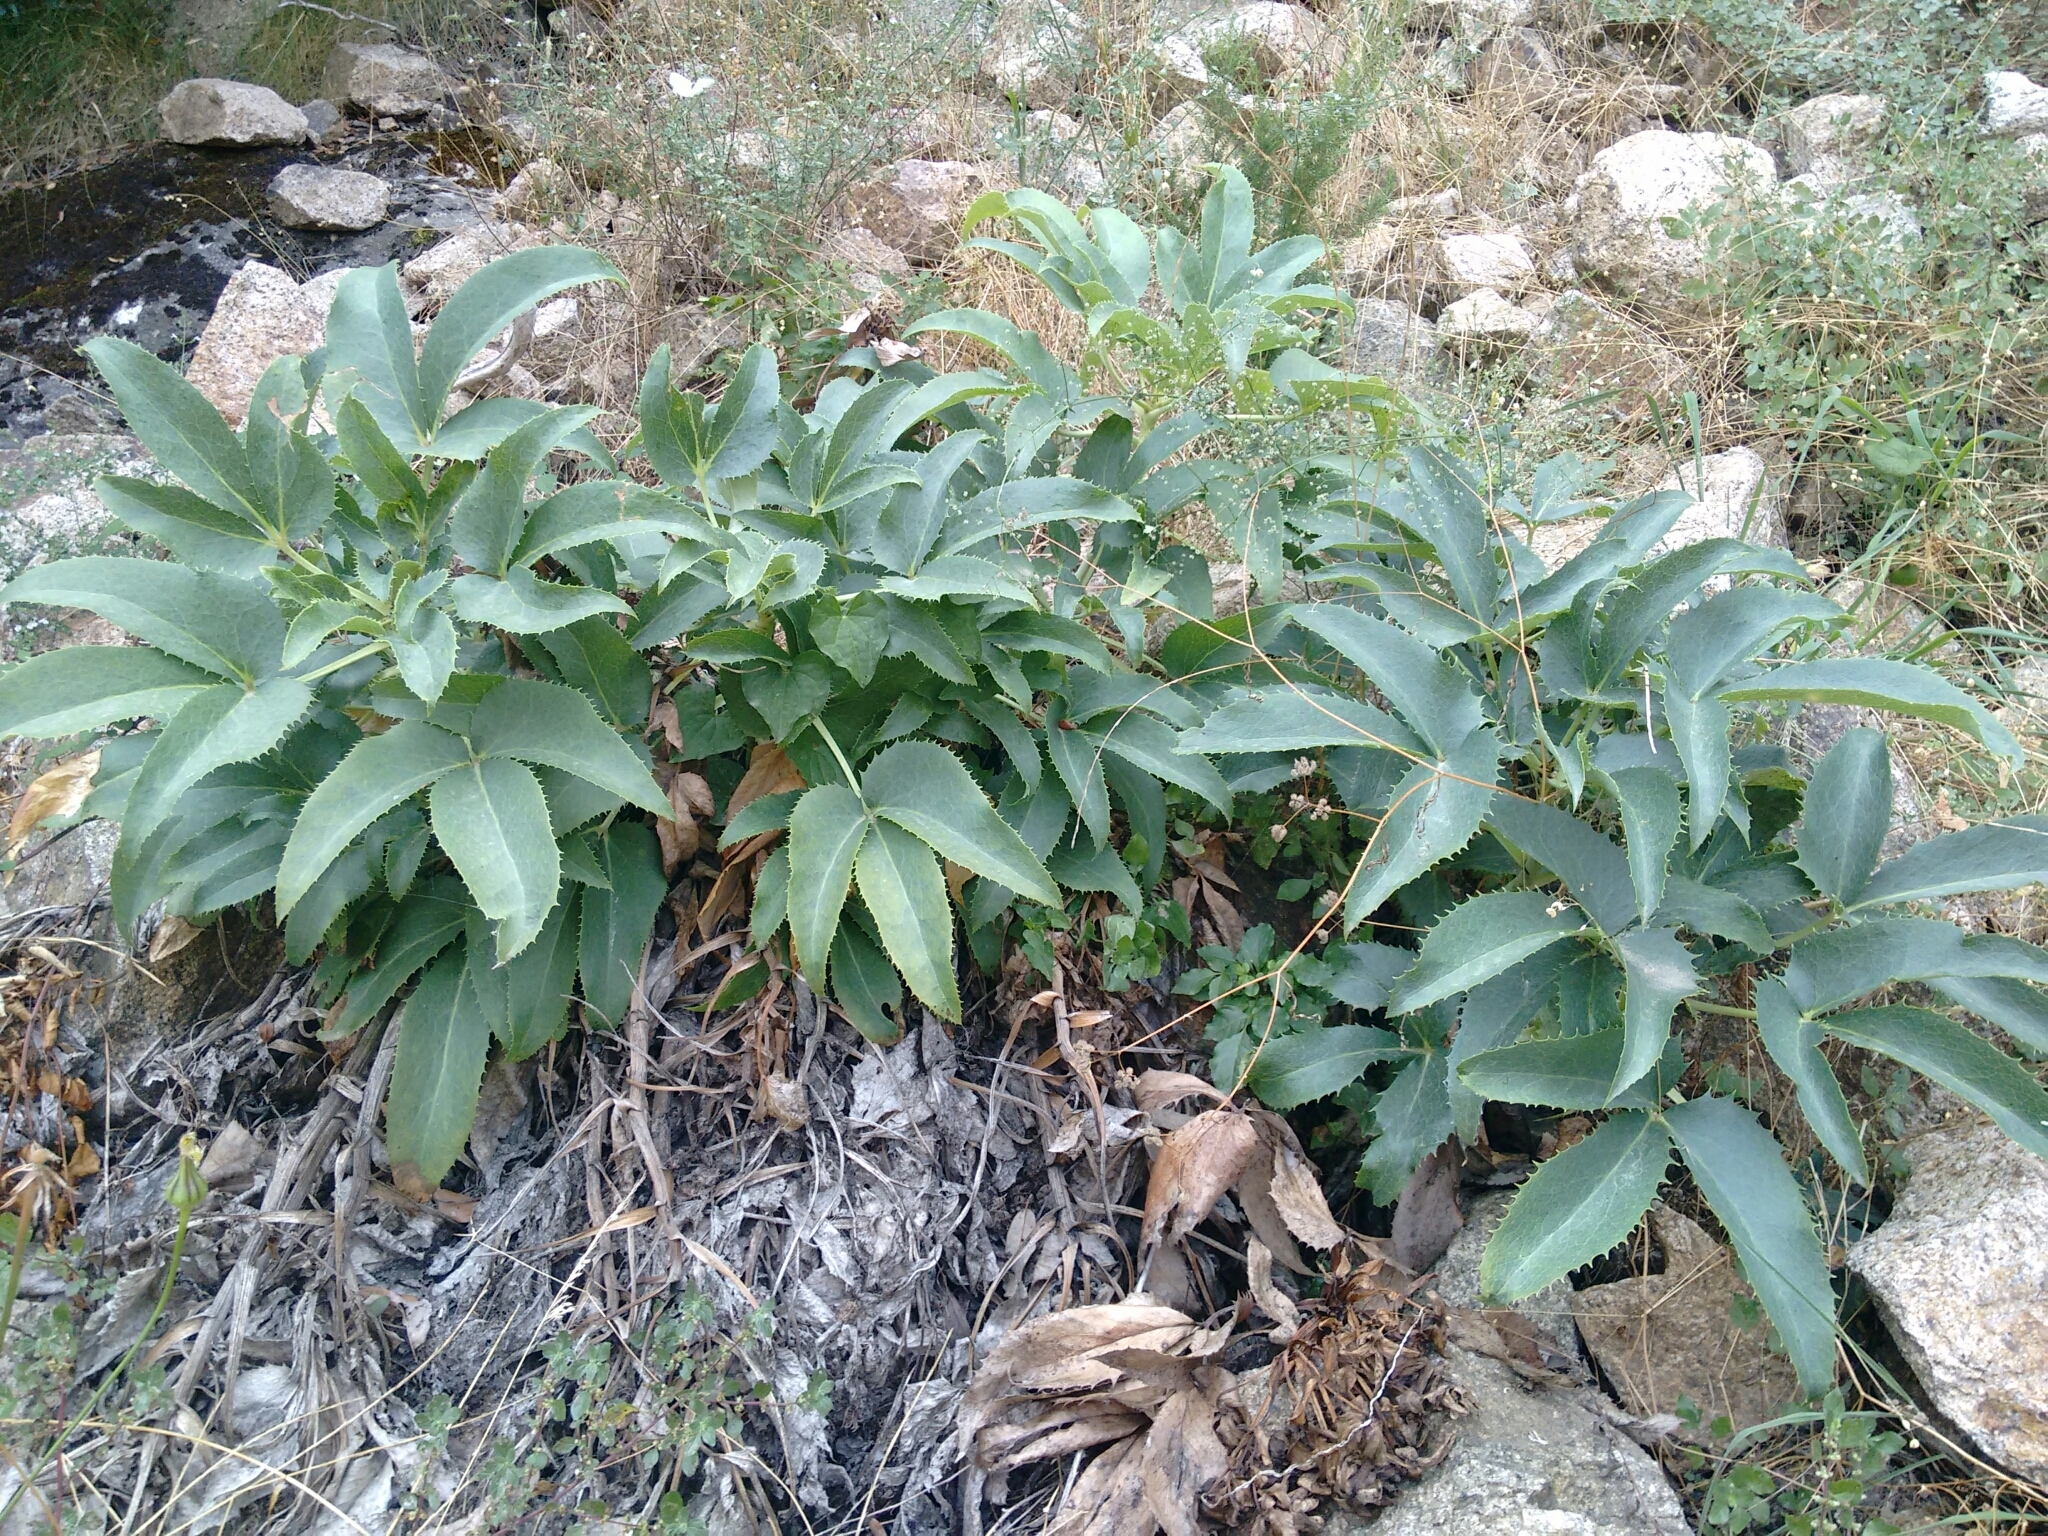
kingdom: Plantae
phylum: Tracheophyta
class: Magnoliopsida
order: Ranunculales
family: Ranunculaceae
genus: Helleborus
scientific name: Helleborus argutifolius
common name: Corsican hellebore
